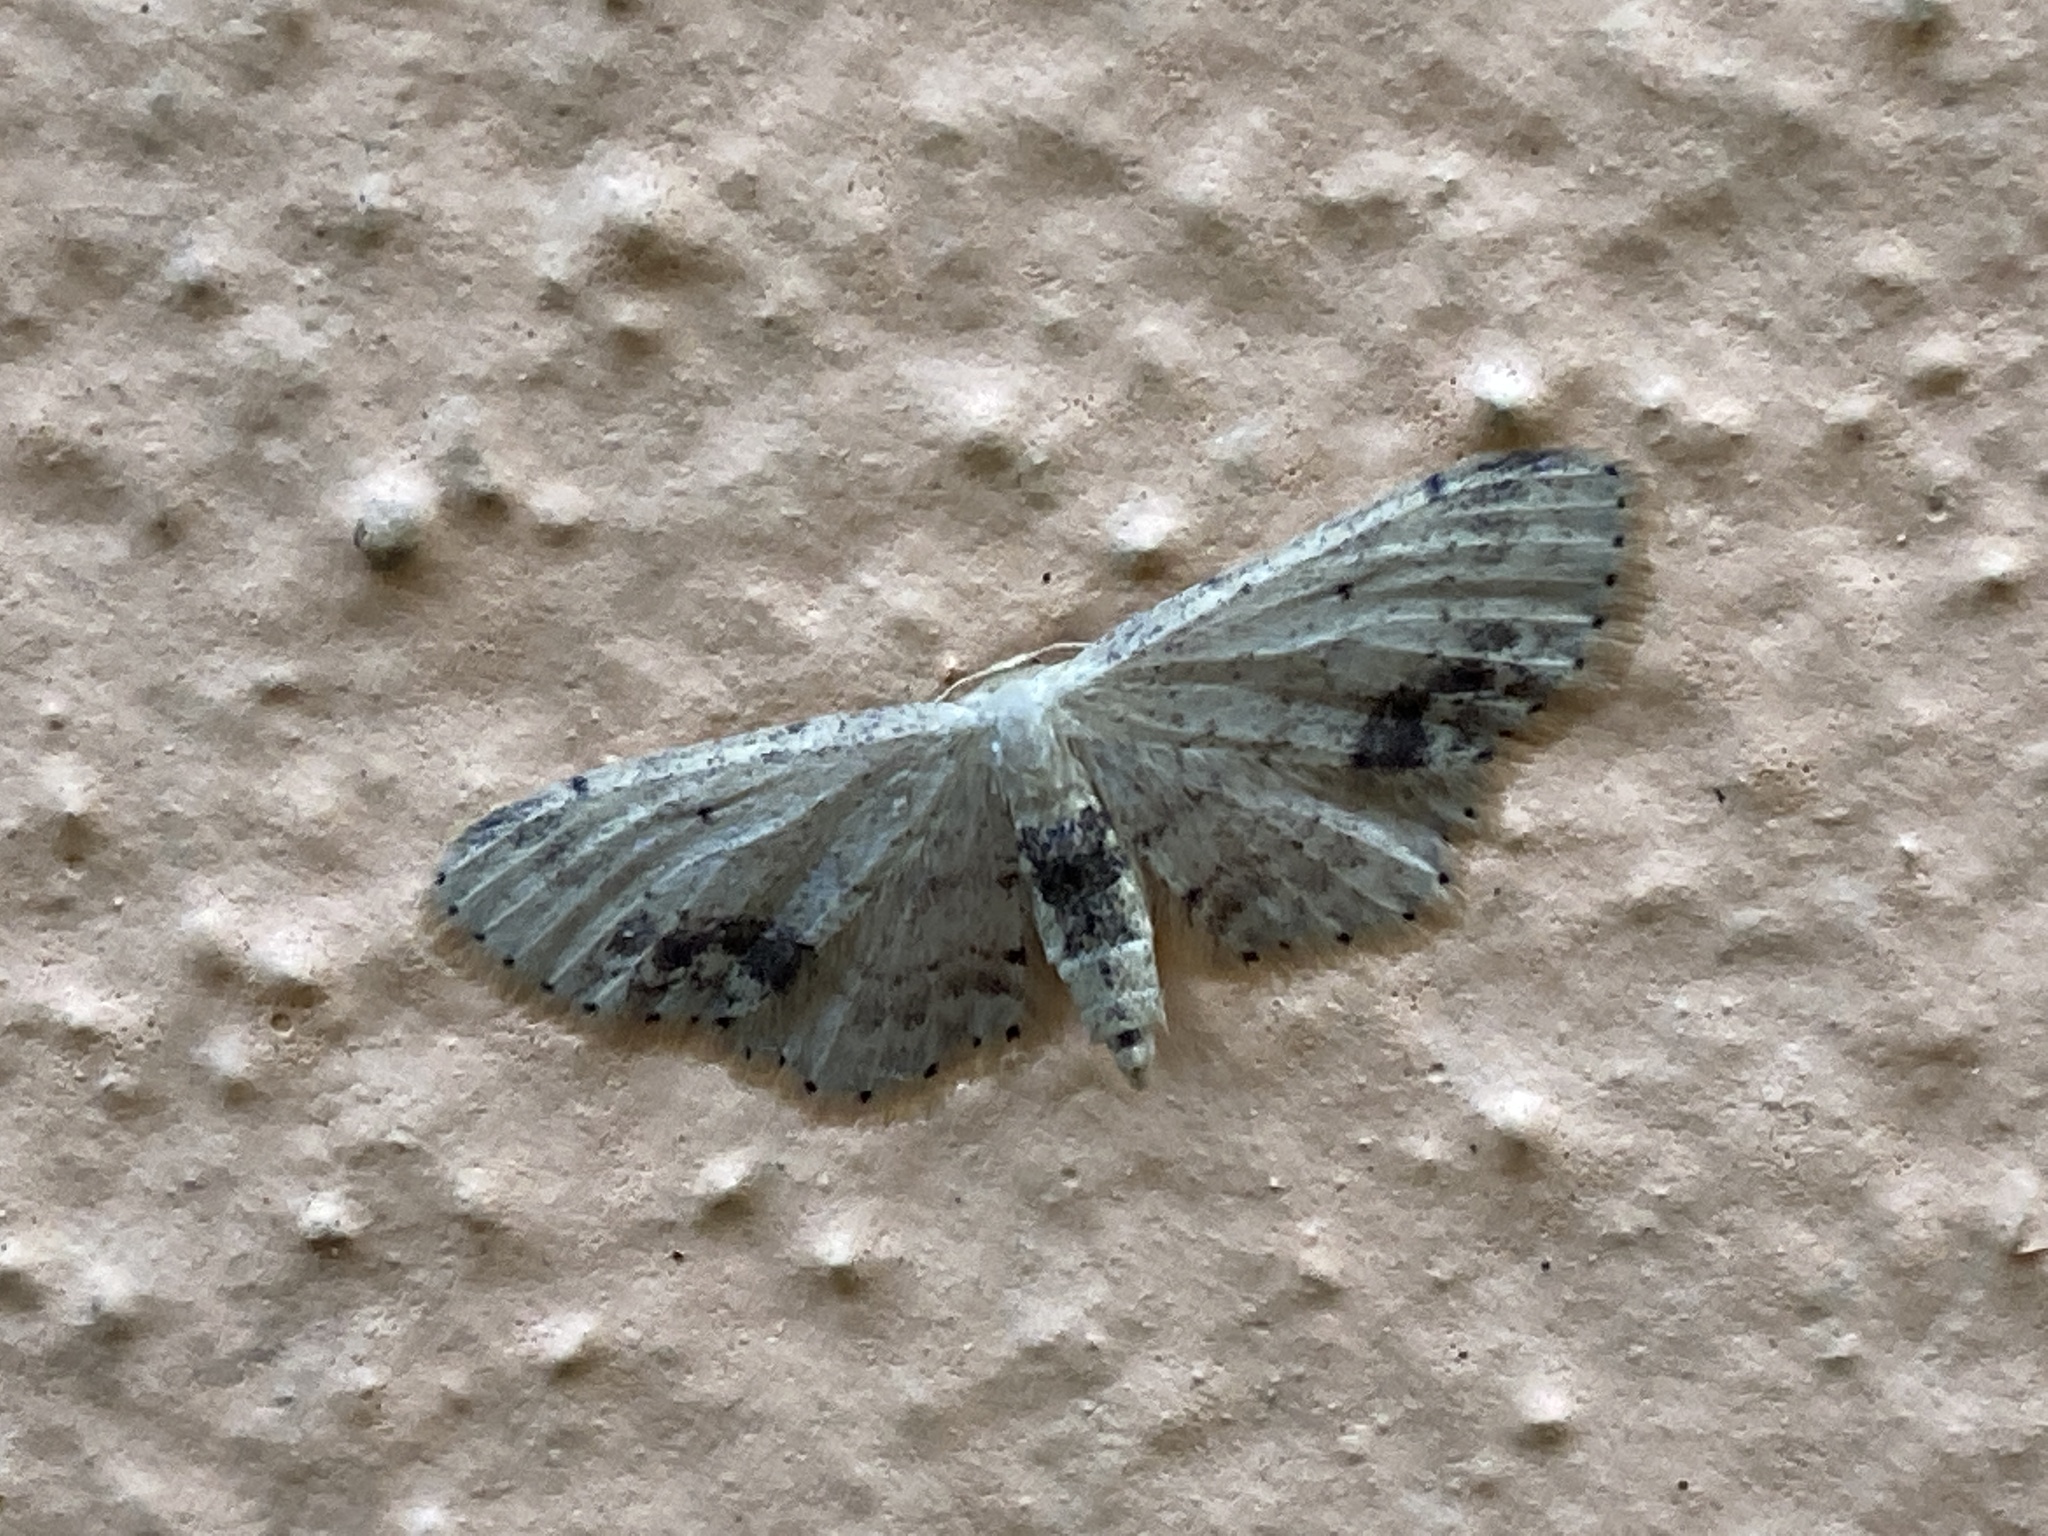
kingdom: Animalia
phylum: Arthropoda
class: Insecta
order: Lepidoptera
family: Geometridae
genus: Idaea
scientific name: Idaea dimidiata
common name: Single-dotted wave
